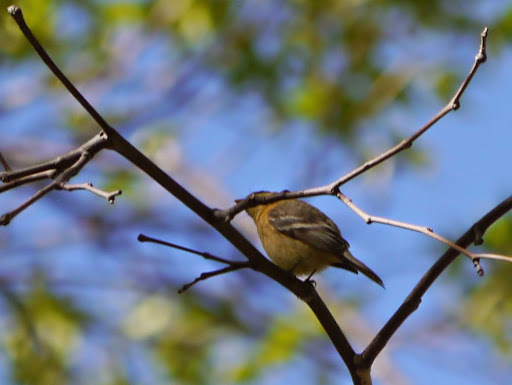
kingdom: Animalia
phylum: Chordata
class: Aves
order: Passeriformes
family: Tyrannidae
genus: Empidonax
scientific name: Empidonax fulvifrons
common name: Buff-breasted flycatcher
